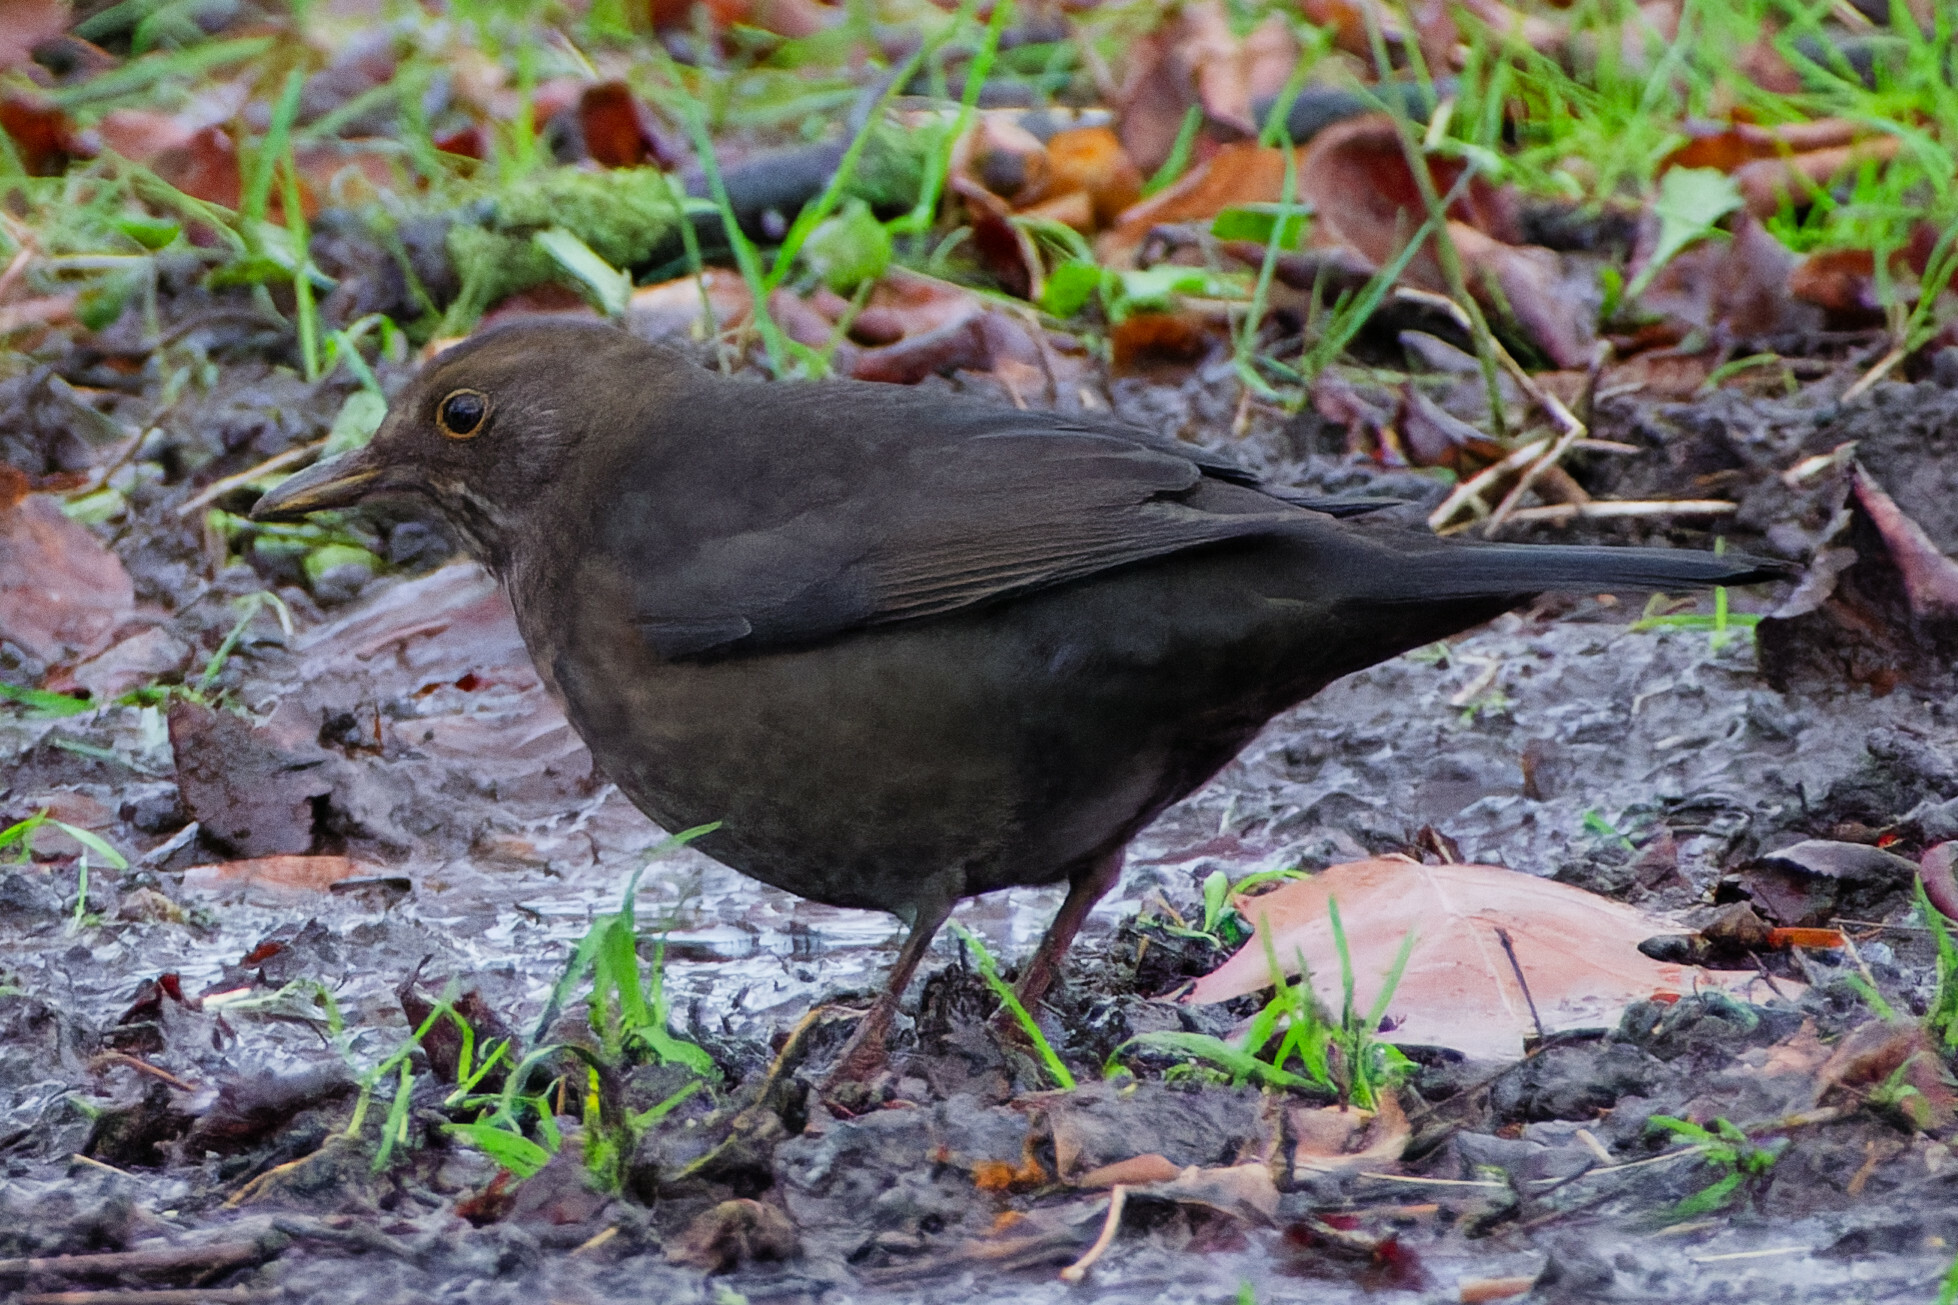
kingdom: Animalia
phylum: Chordata
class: Aves
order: Passeriformes
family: Turdidae
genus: Turdus
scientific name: Turdus merula
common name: Common blackbird
